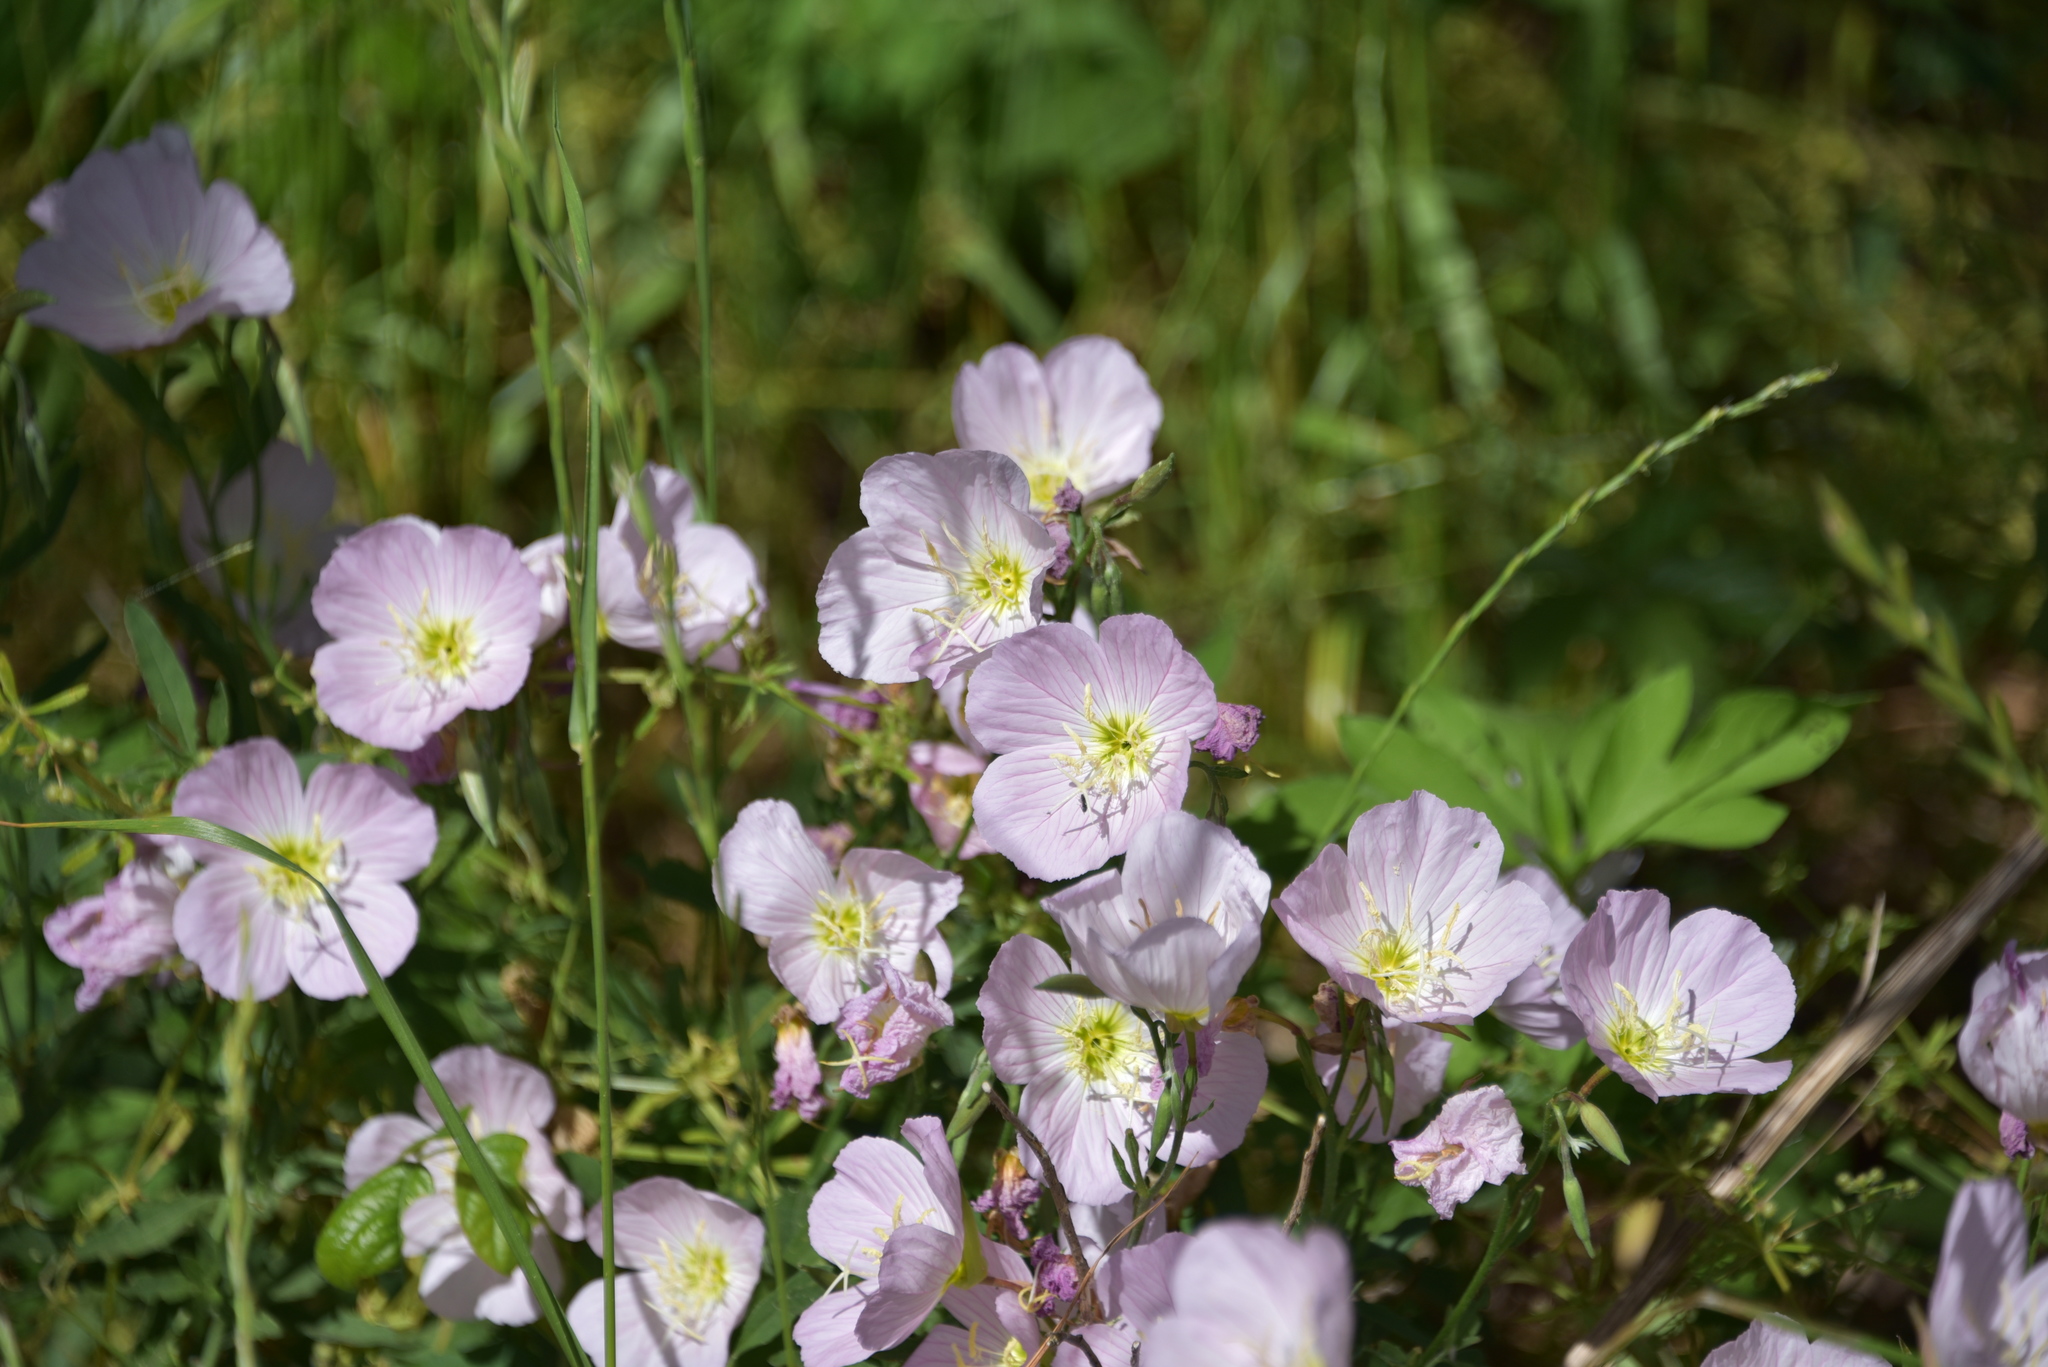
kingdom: Plantae
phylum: Tracheophyta
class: Magnoliopsida
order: Myrtales
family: Onagraceae
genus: Oenothera
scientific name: Oenothera speciosa
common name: White evening-primrose
